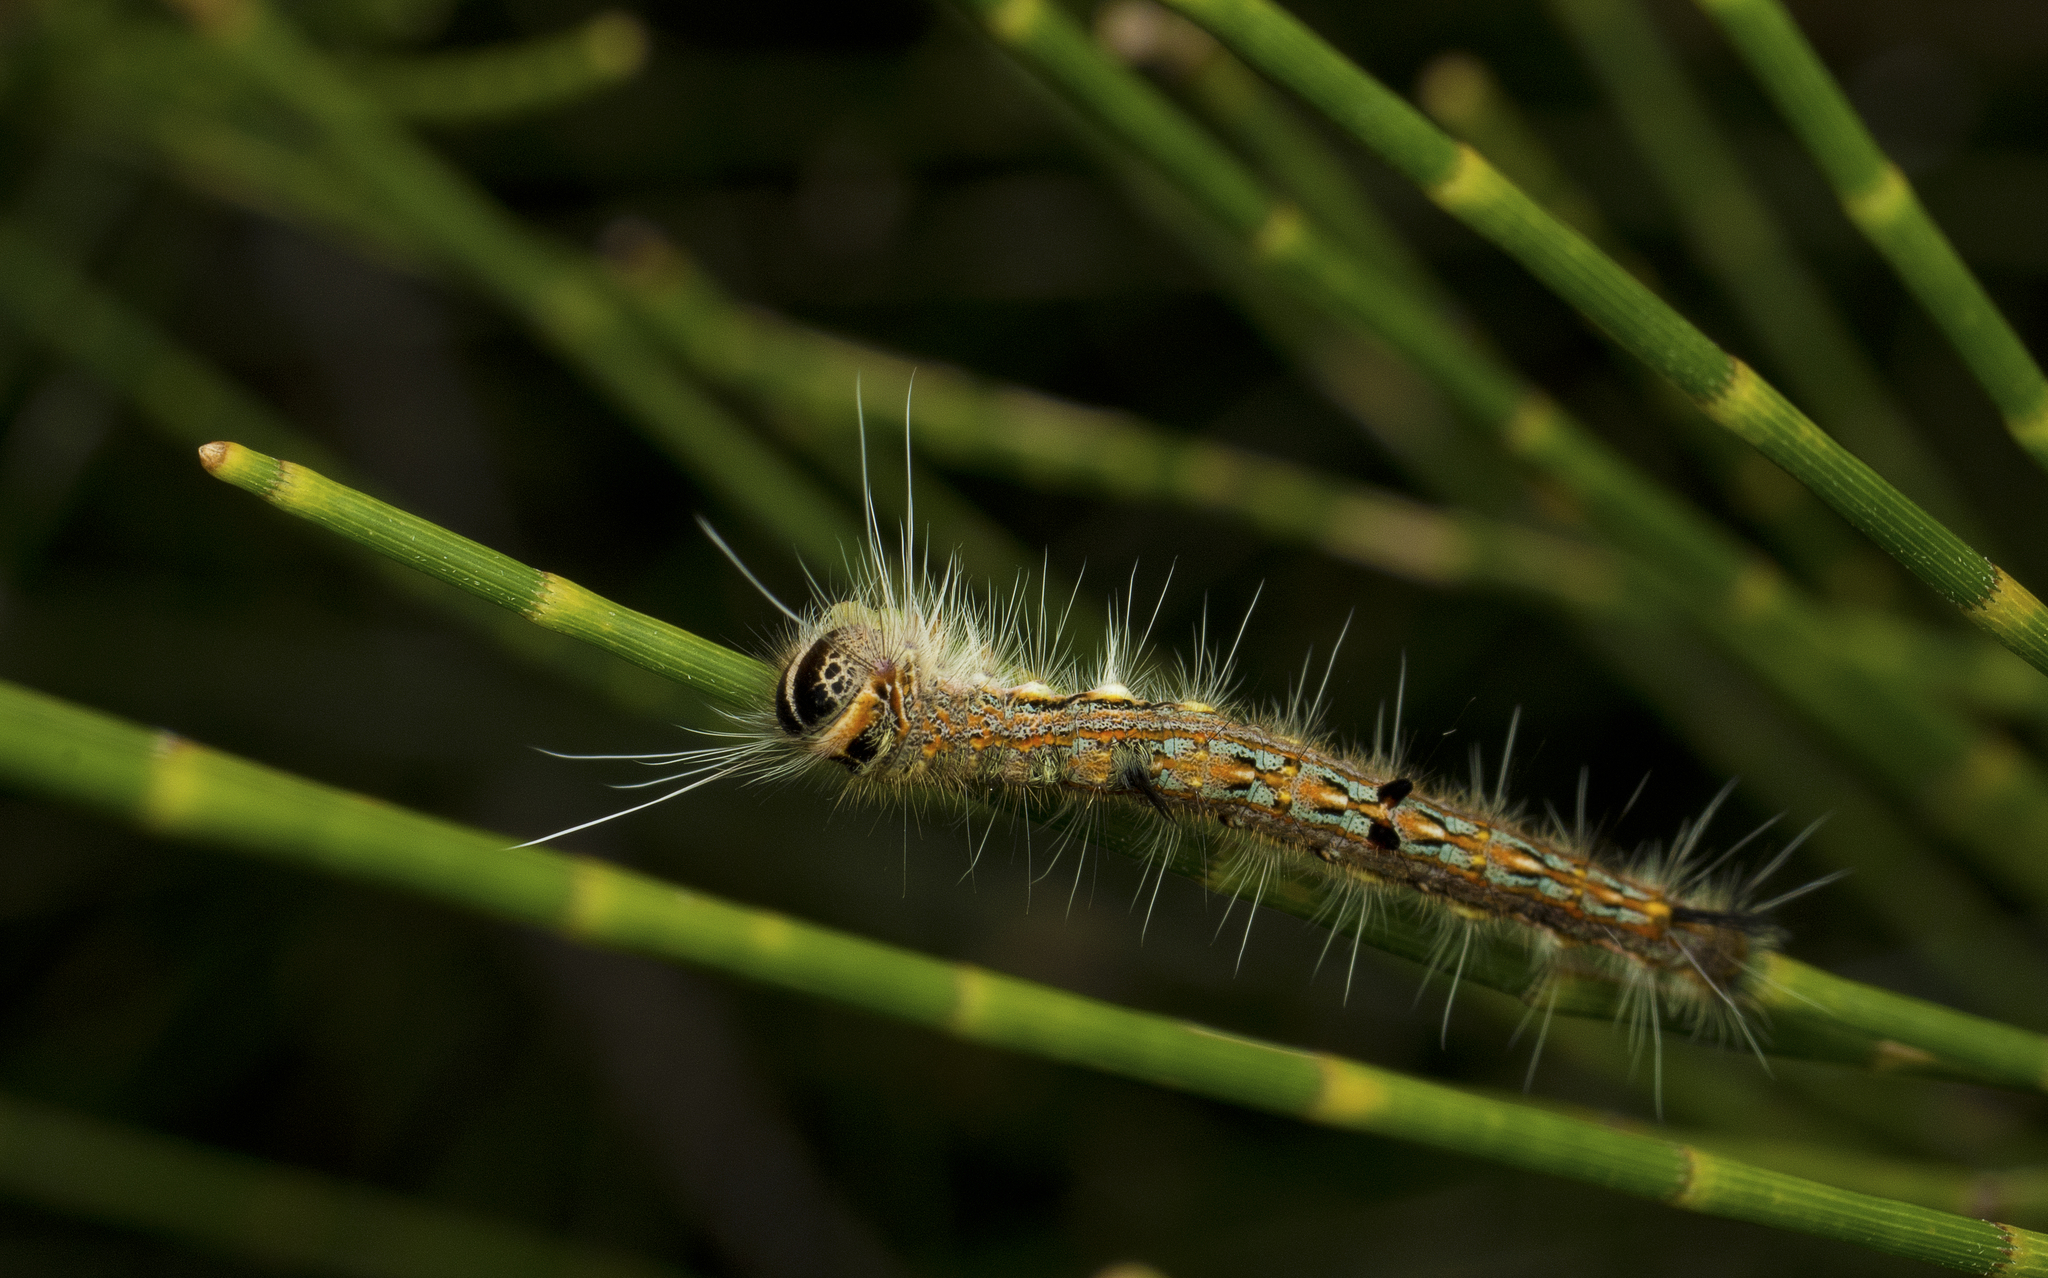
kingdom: Animalia
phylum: Arthropoda
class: Insecta
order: Lepidoptera
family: Lasiocampidae
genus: Pernattia
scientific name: Pernattia pusilla
